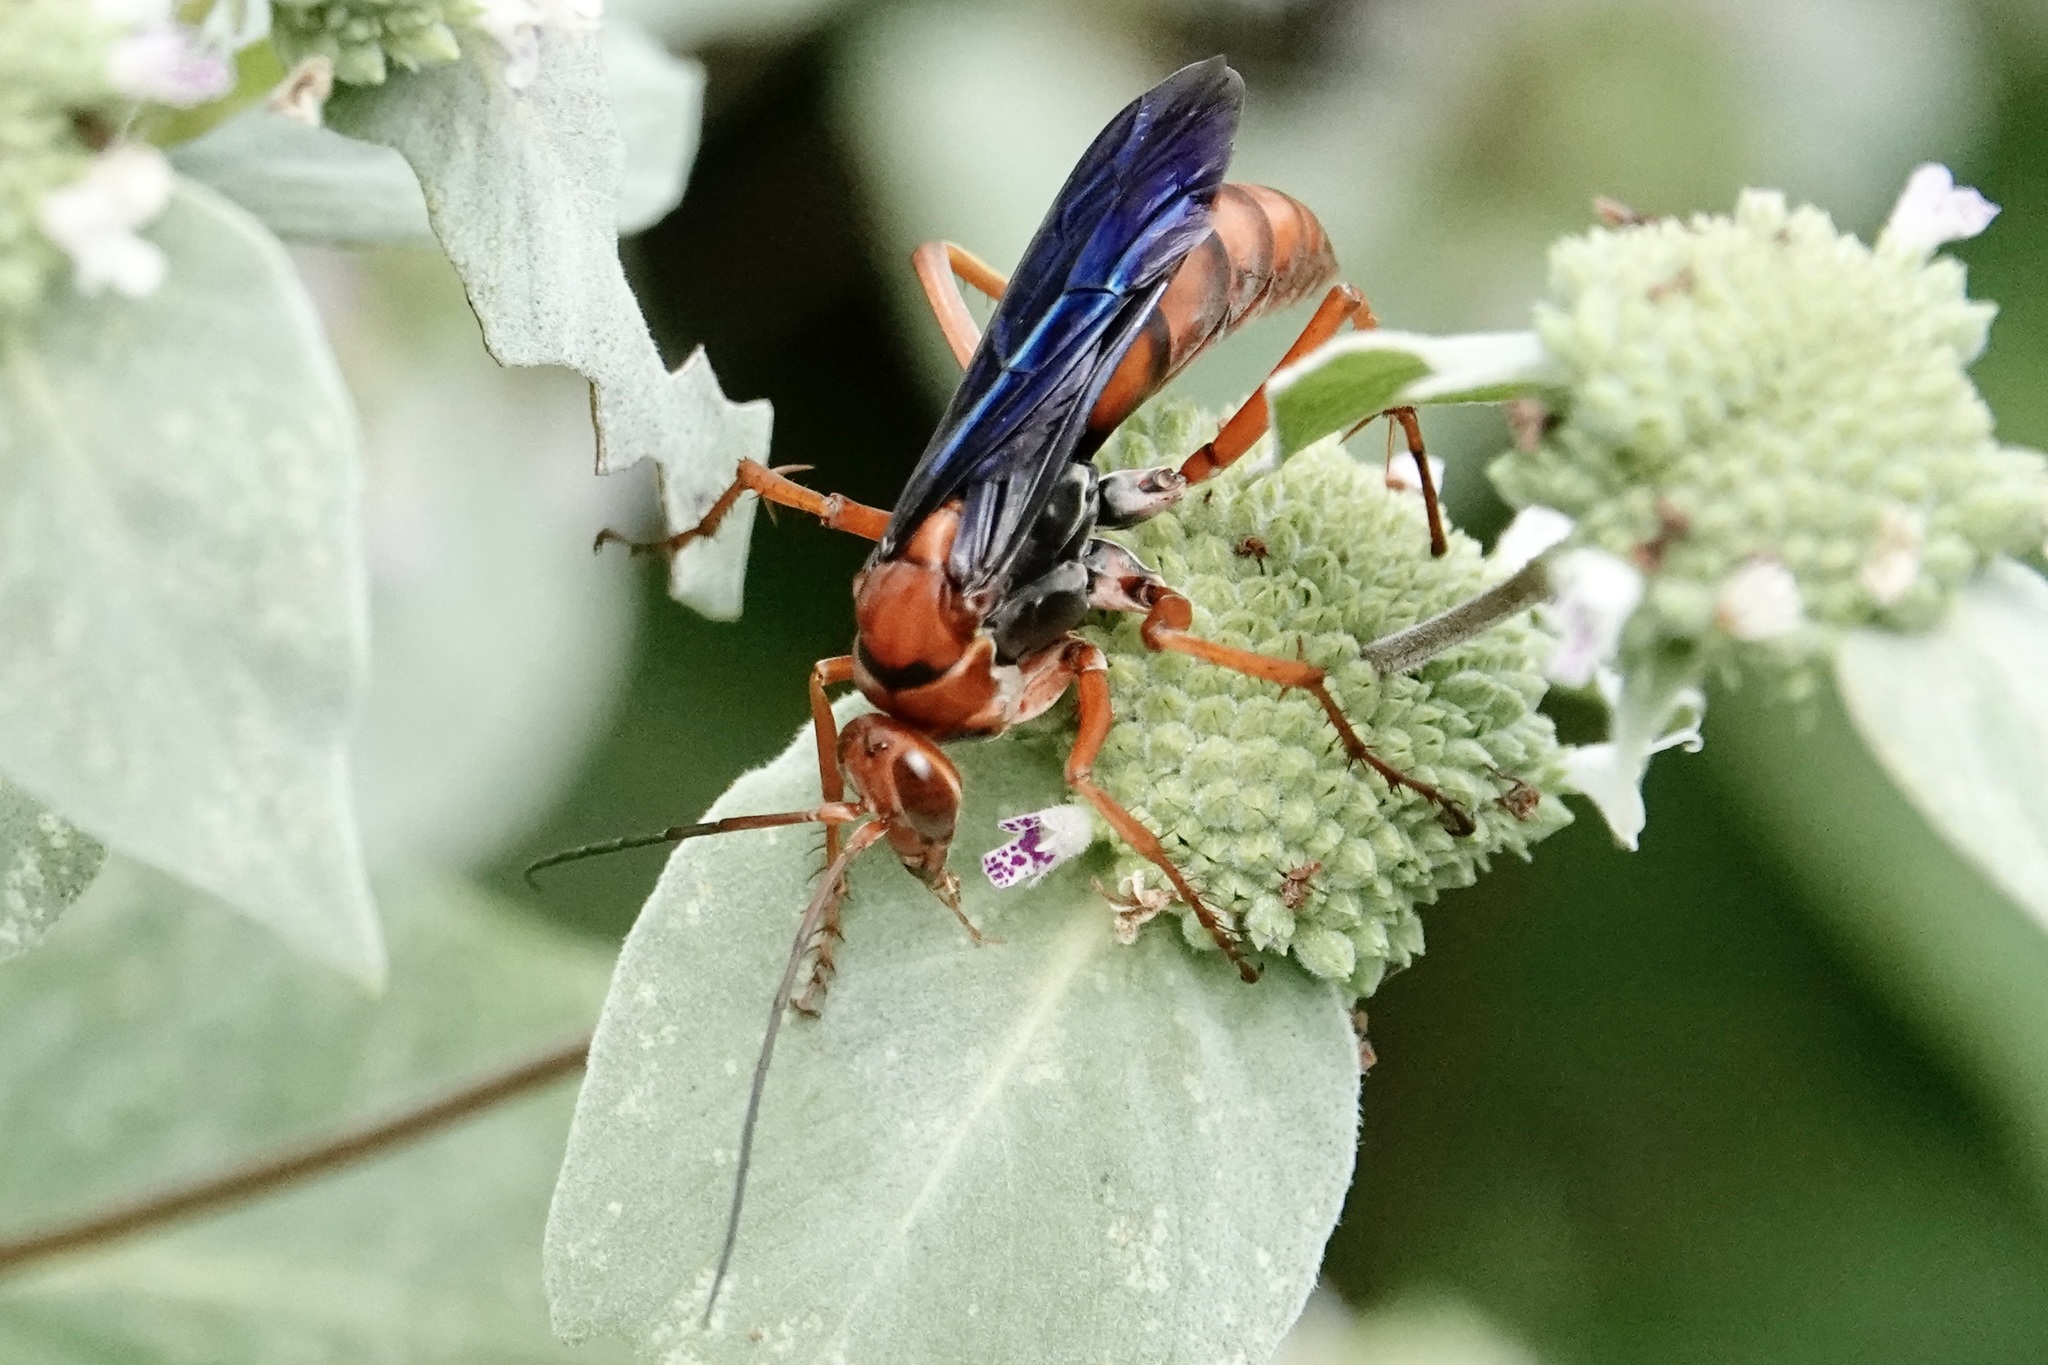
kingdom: Animalia
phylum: Arthropoda
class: Insecta
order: Hymenoptera
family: Pompilidae
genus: Tachypompilus
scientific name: Tachypompilus ferrugineus
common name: Rusty spider wasp
